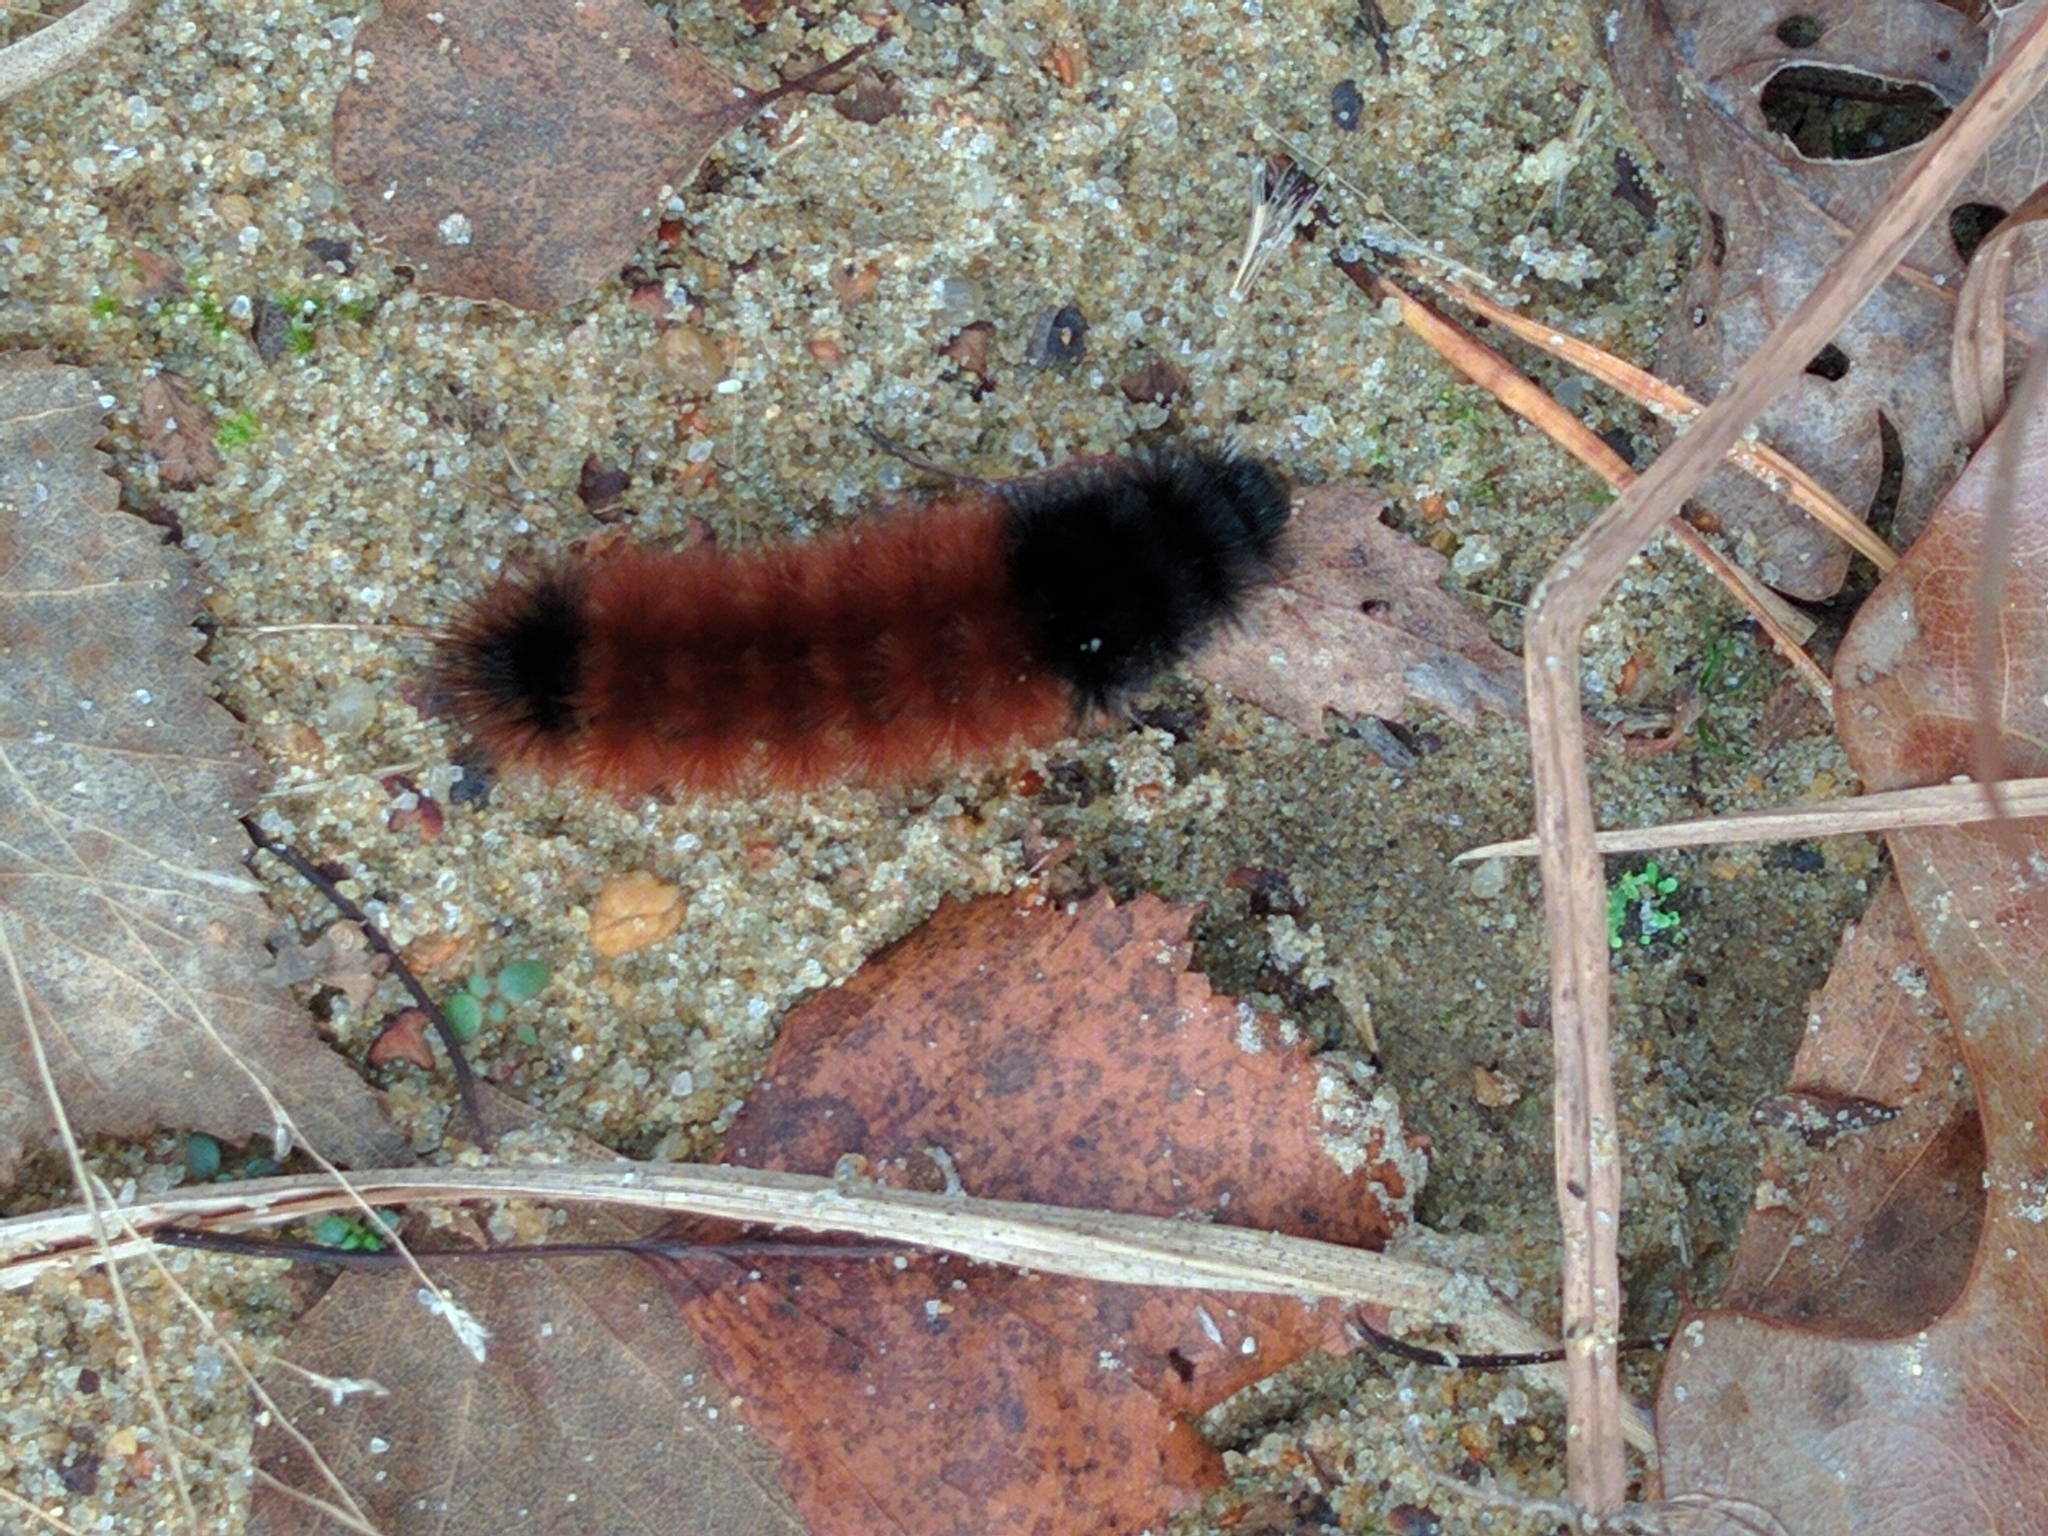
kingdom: Animalia
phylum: Arthropoda
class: Insecta
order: Lepidoptera
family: Erebidae
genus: Pyrrharctia
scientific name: Pyrrharctia isabella
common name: Isabella tiger moth
